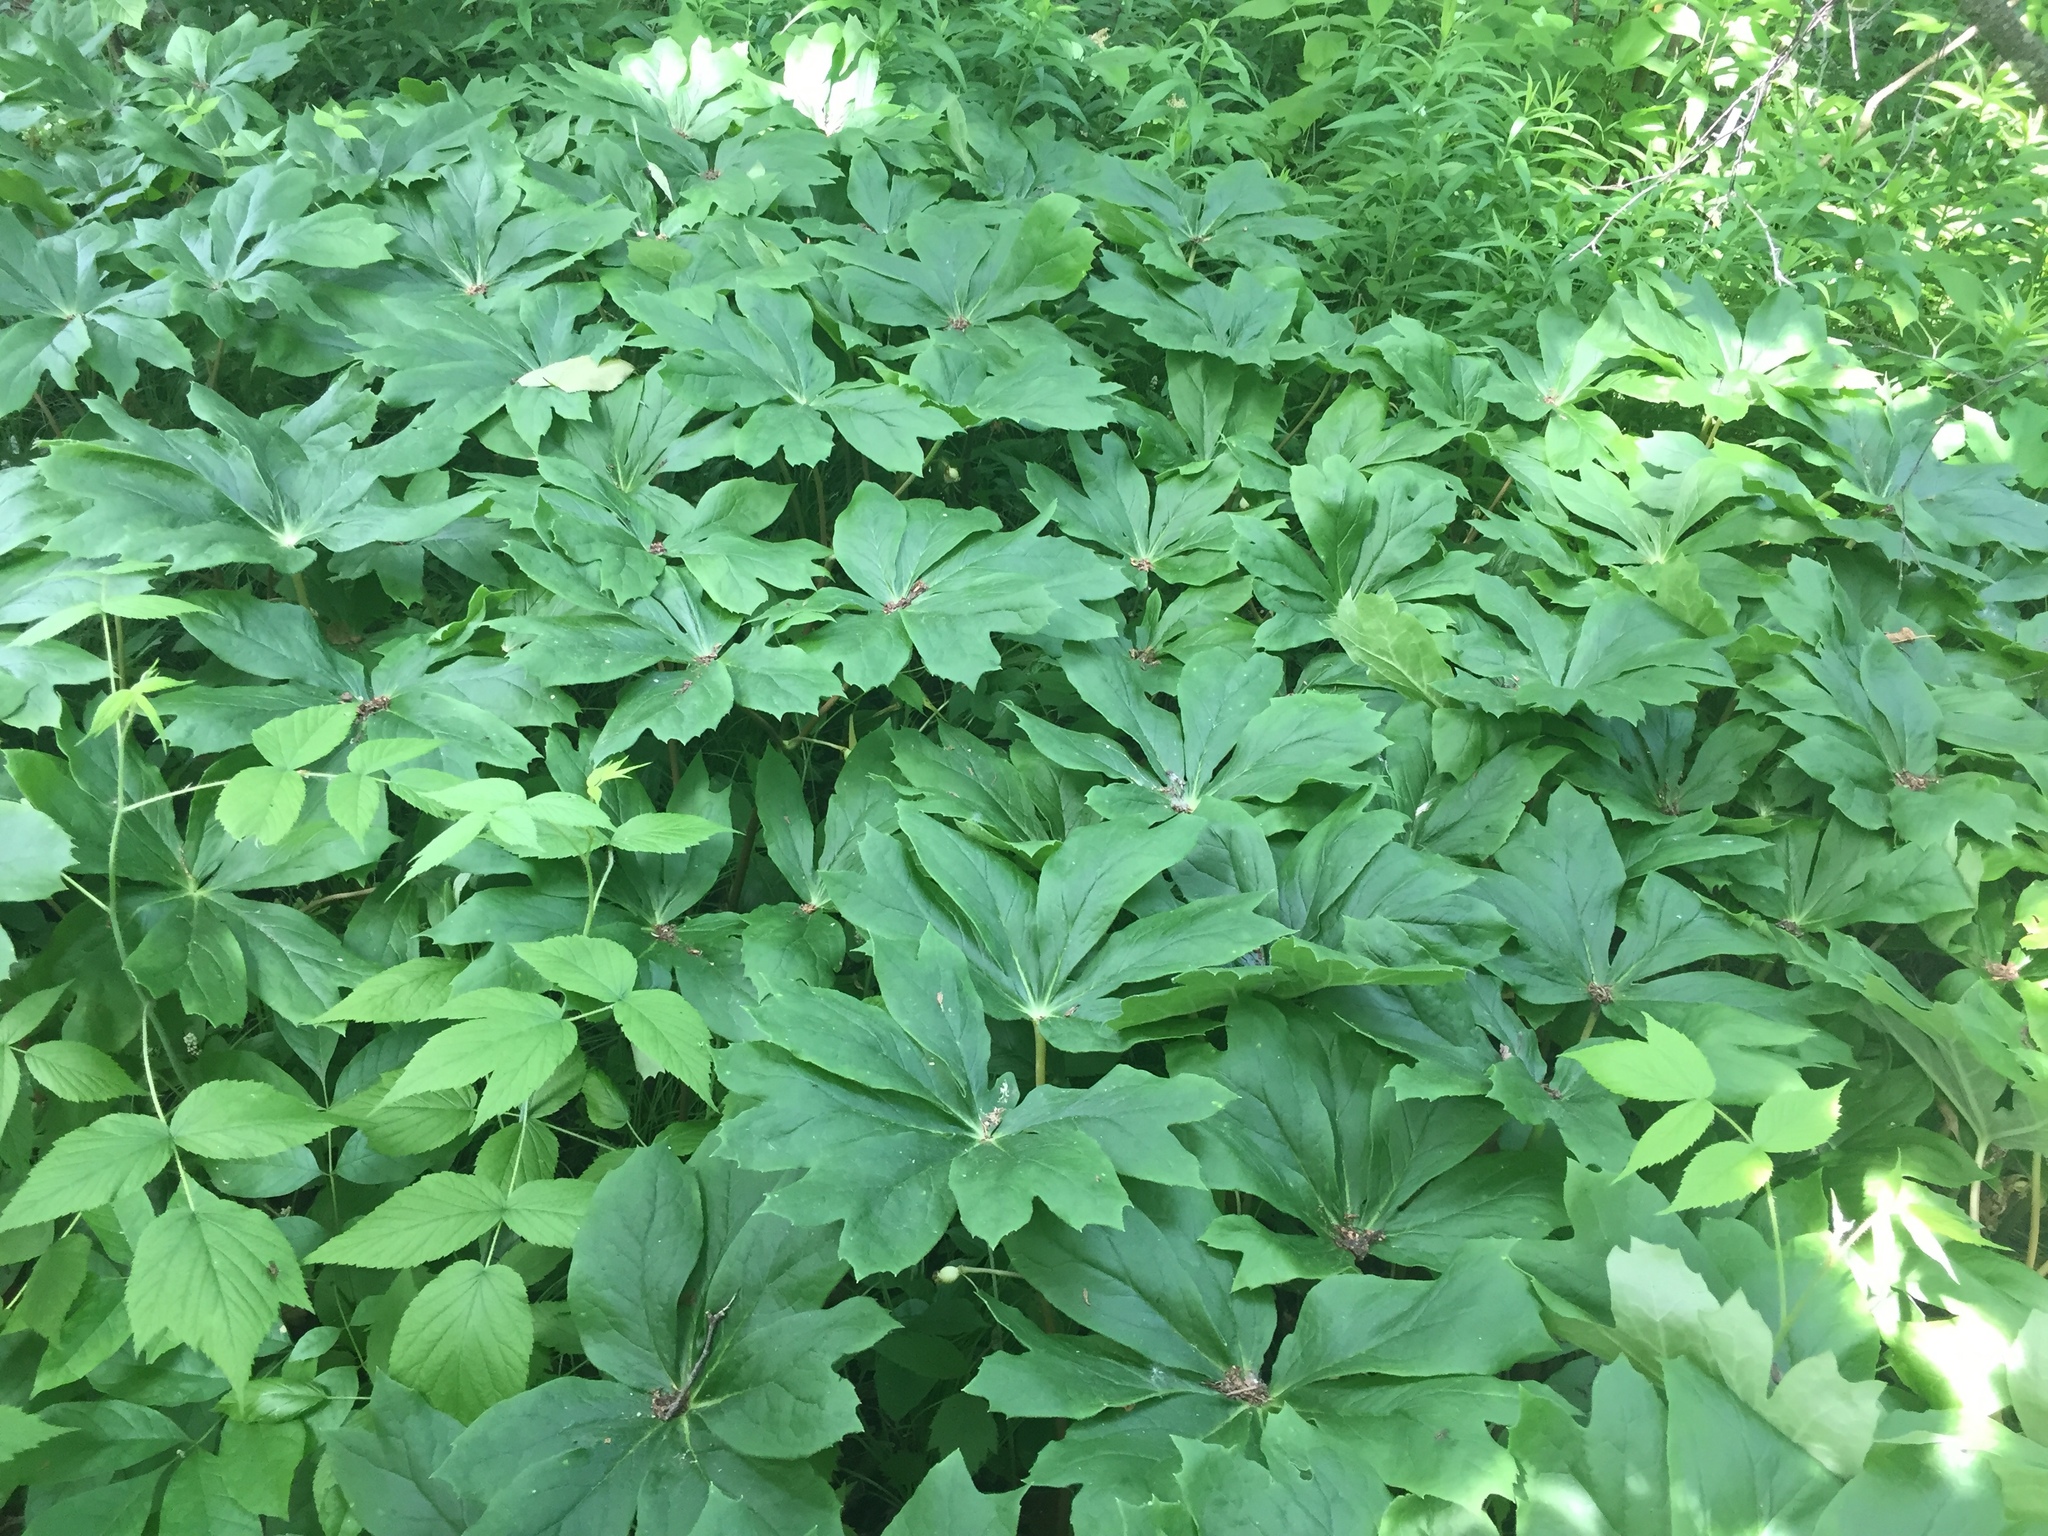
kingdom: Plantae
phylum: Tracheophyta
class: Magnoliopsida
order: Ranunculales
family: Berberidaceae
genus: Podophyllum
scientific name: Podophyllum peltatum
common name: Wild mandrake
